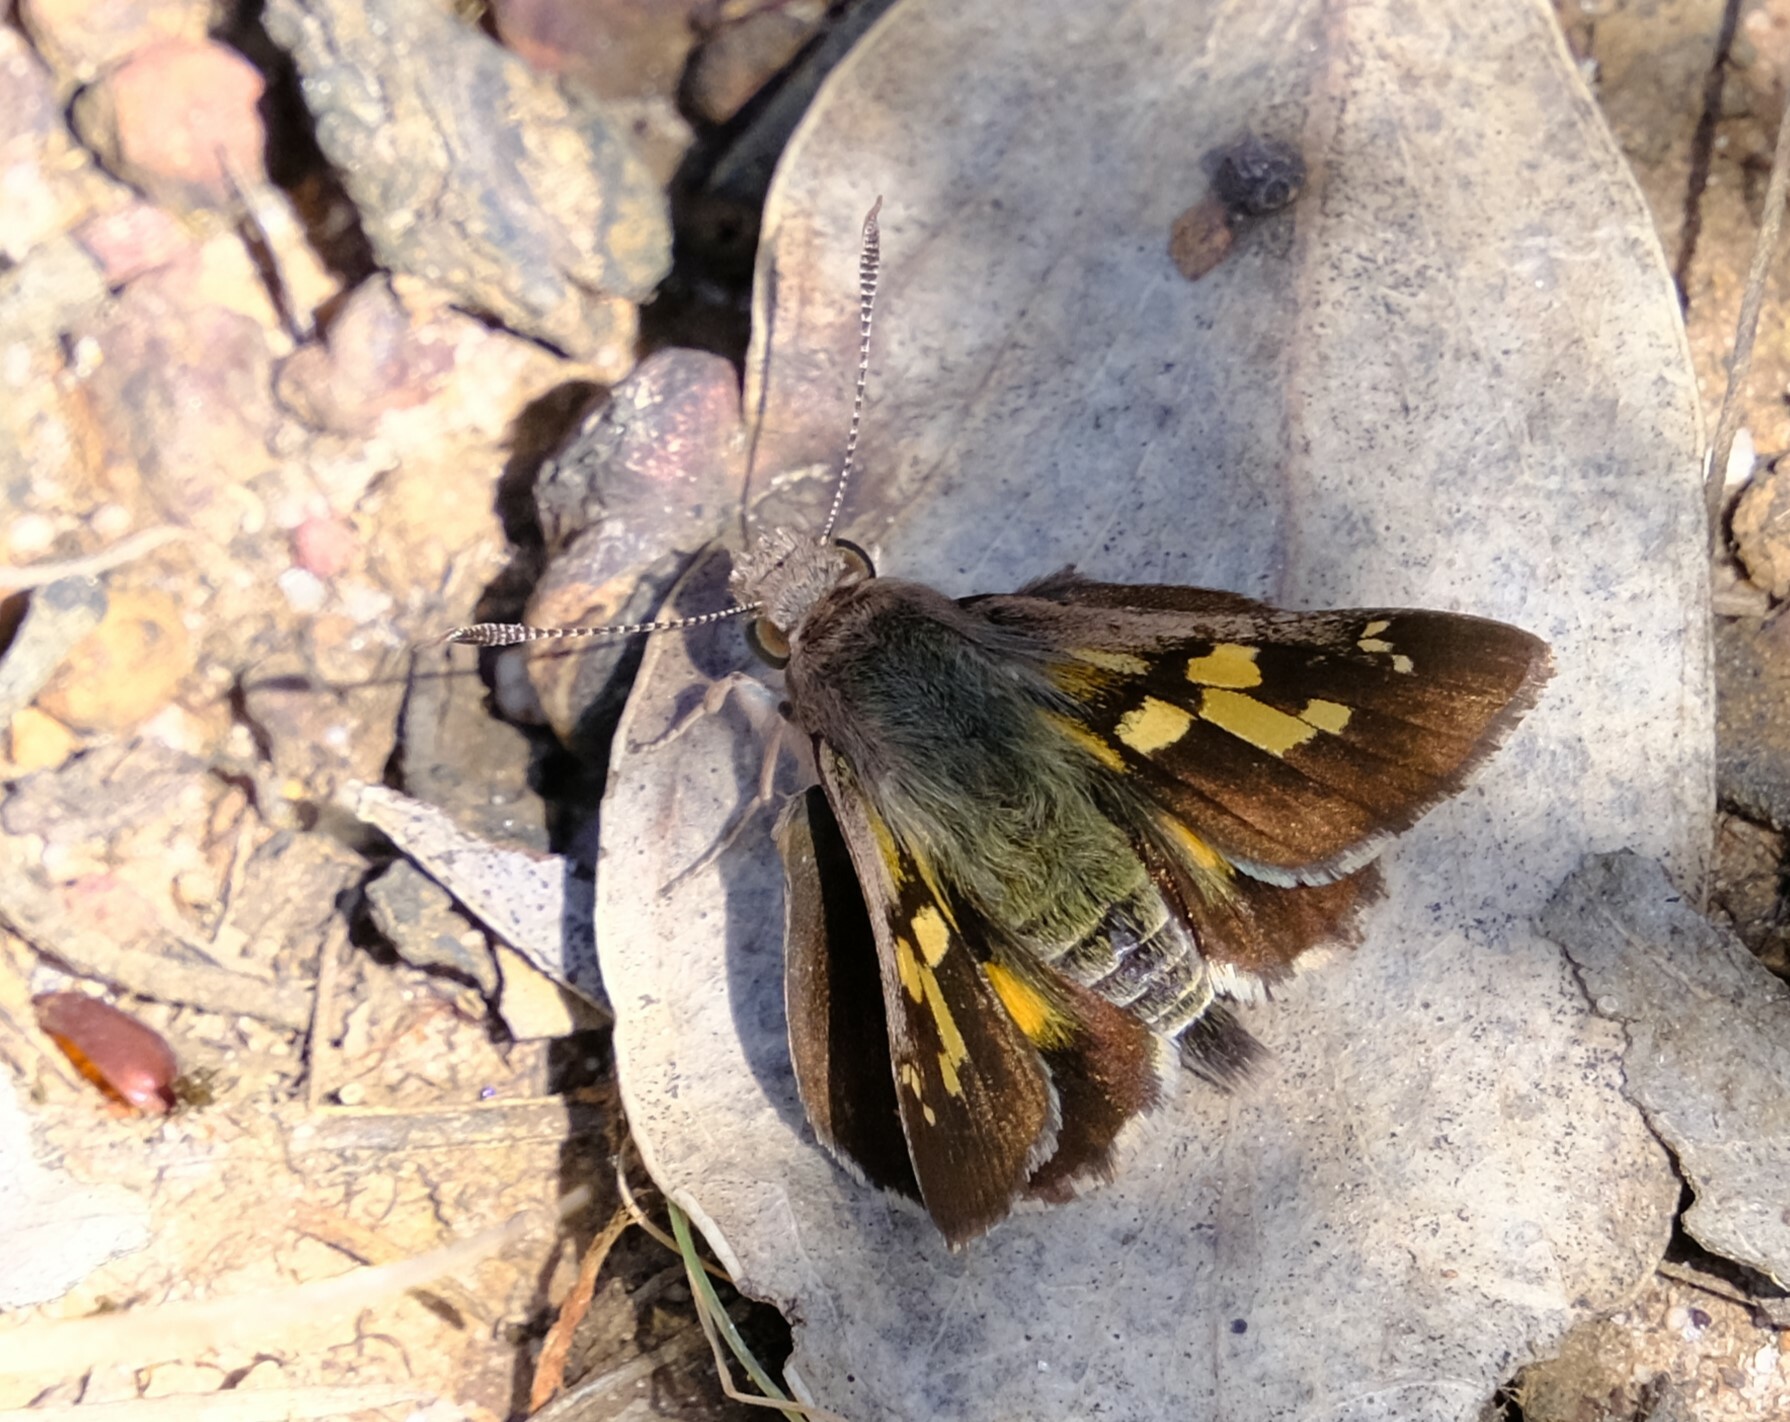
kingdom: Animalia
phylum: Arthropoda
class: Insecta
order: Lepidoptera
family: Hesperiidae
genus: Trapezites
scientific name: Trapezites phigalioides
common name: Montane ochre
